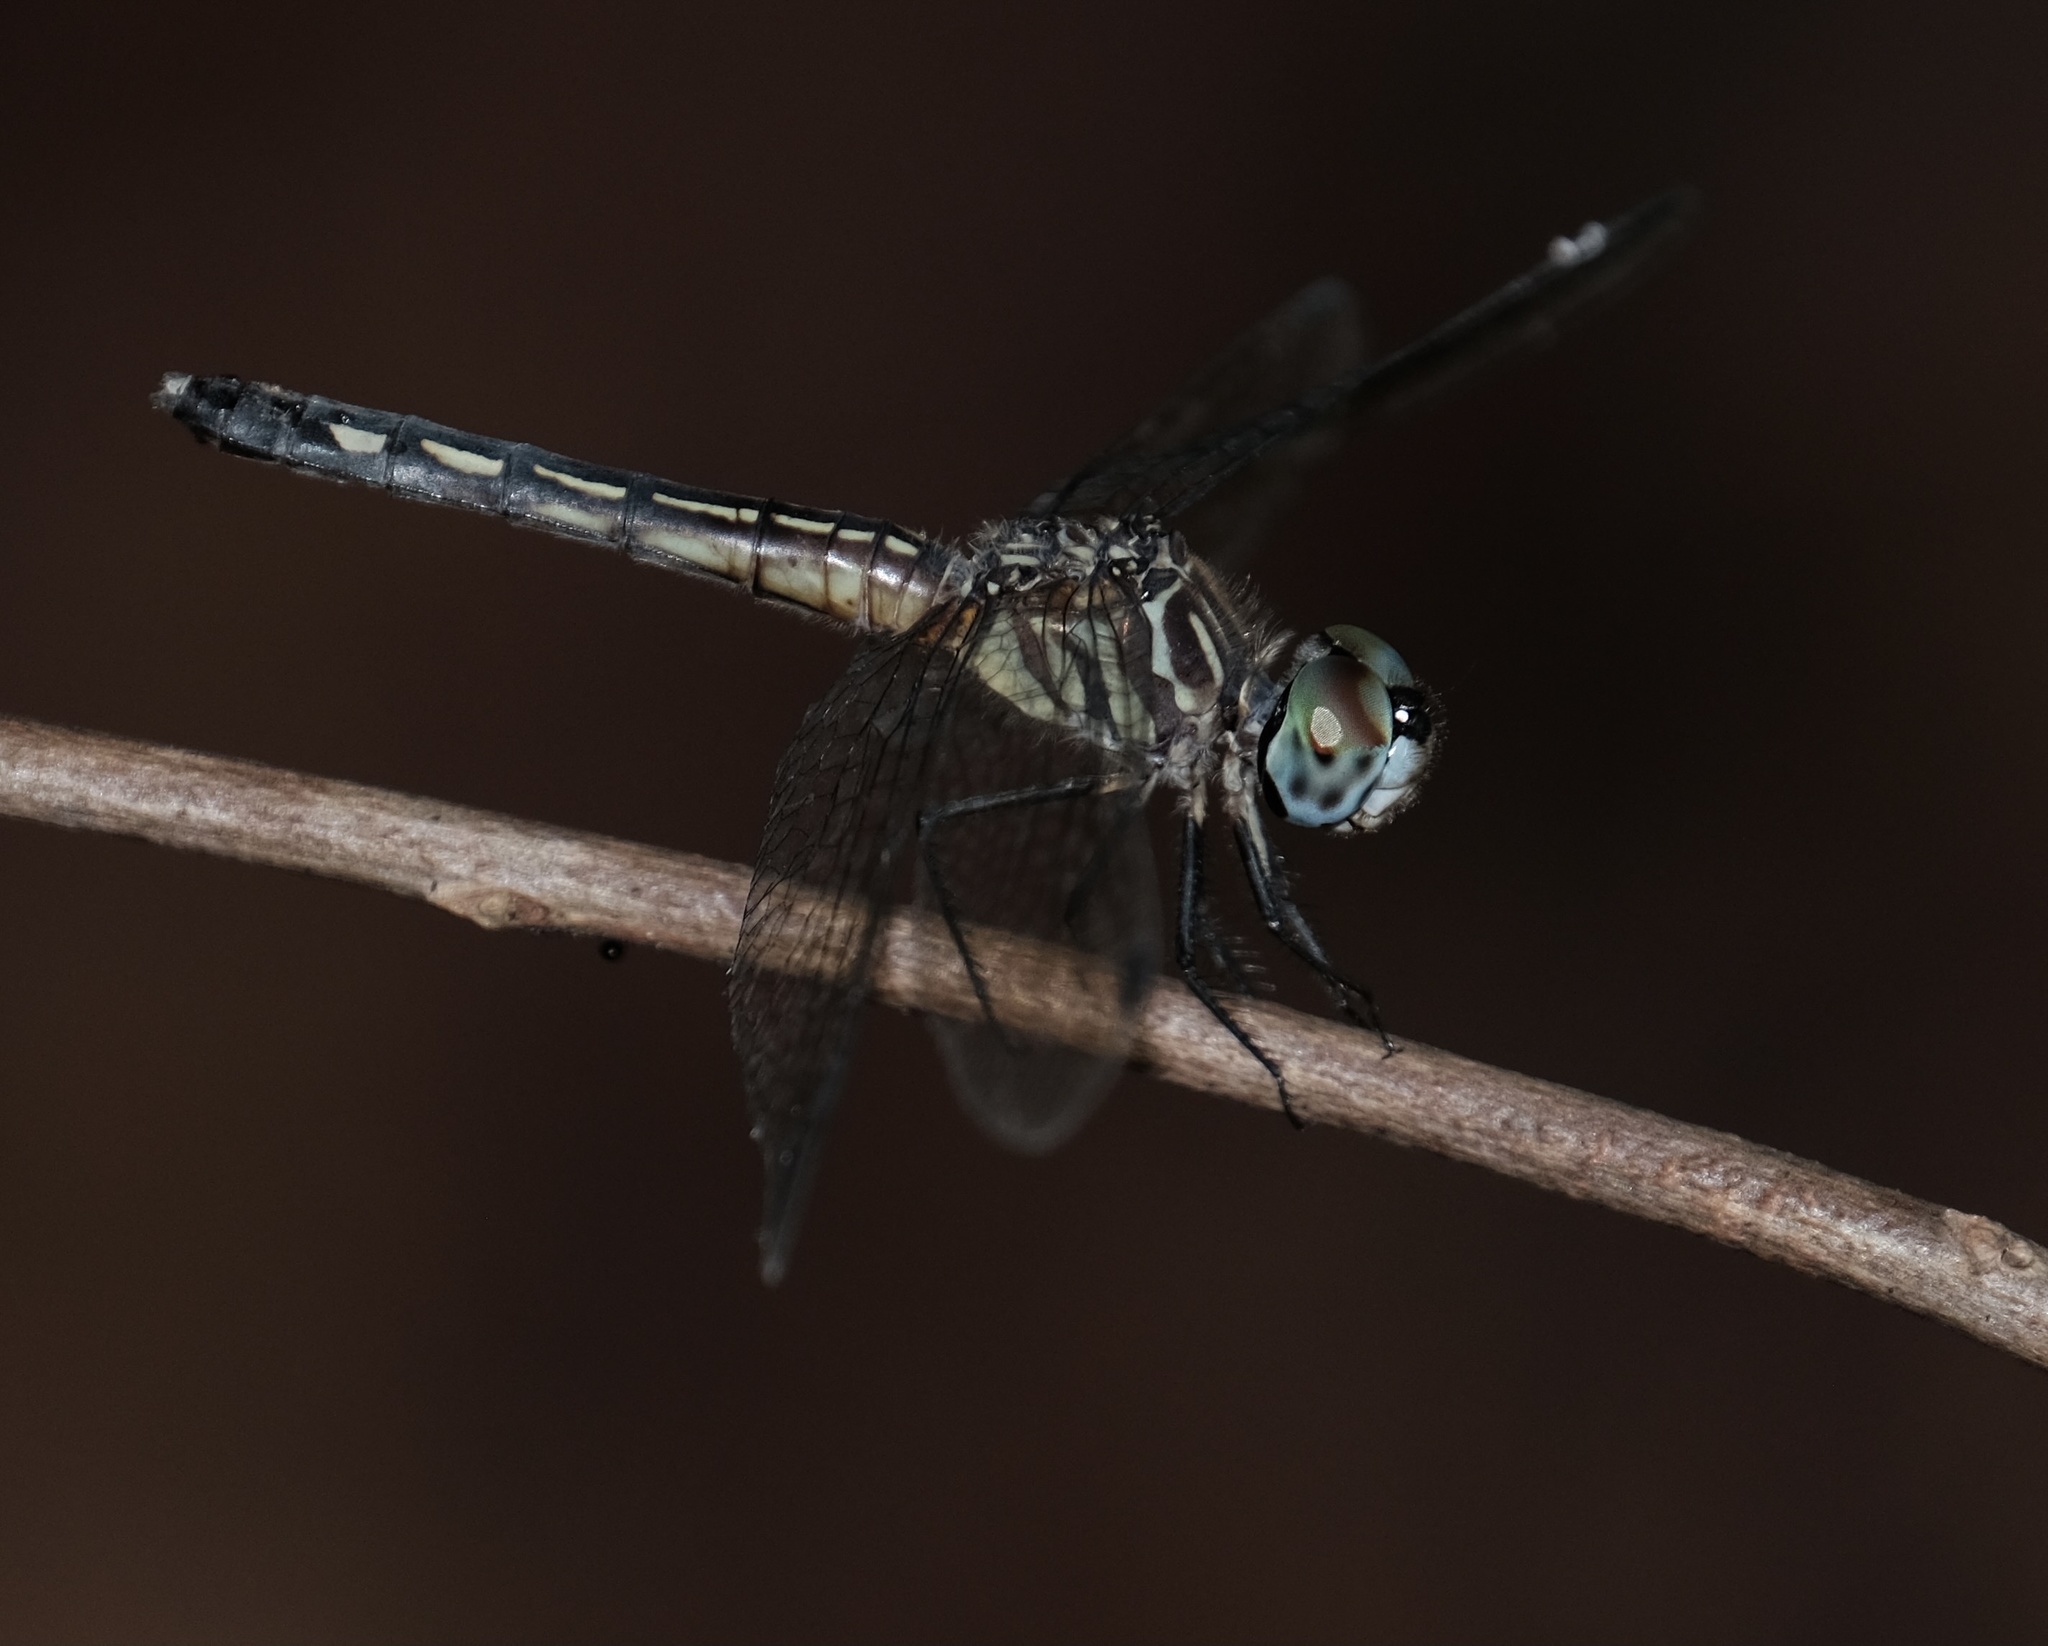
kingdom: Animalia
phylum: Arthropoda
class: Insecta
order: Odonata
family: Libellulidae
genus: Pachydiplax
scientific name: Pachydiplax longipennis
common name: Blue dasher
